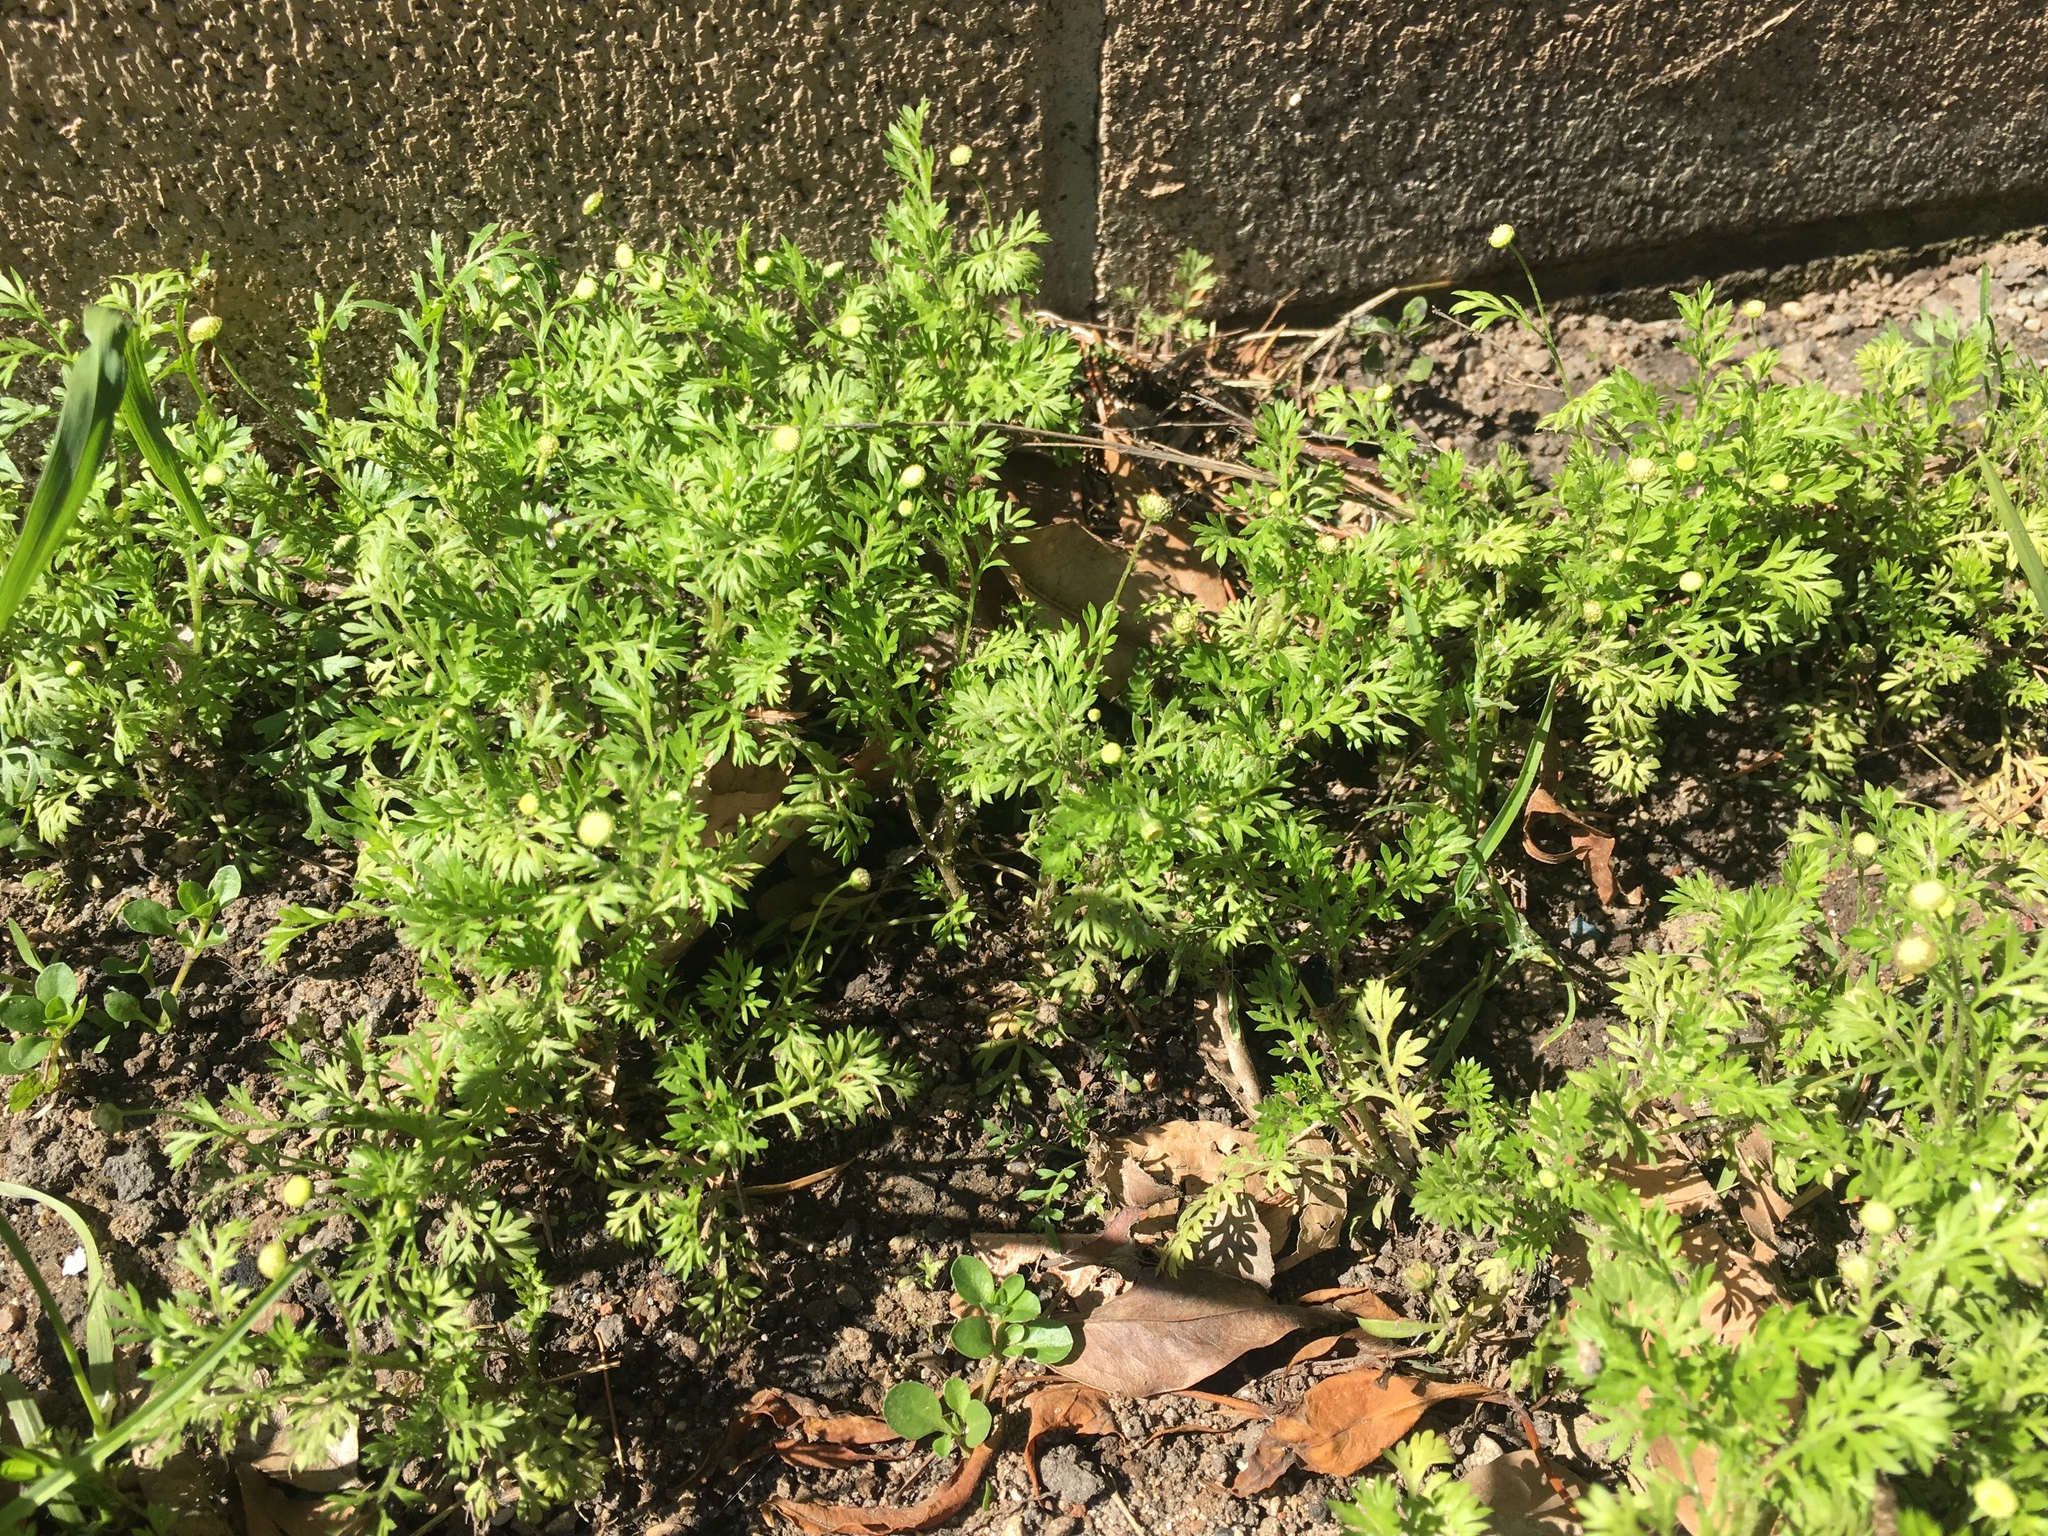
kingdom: Plantae
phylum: Tracheophyta
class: Magnoliopsida
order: Asterales
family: Asteraceae
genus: Cotula
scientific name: Cotula australis
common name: Australian waterbuttons
